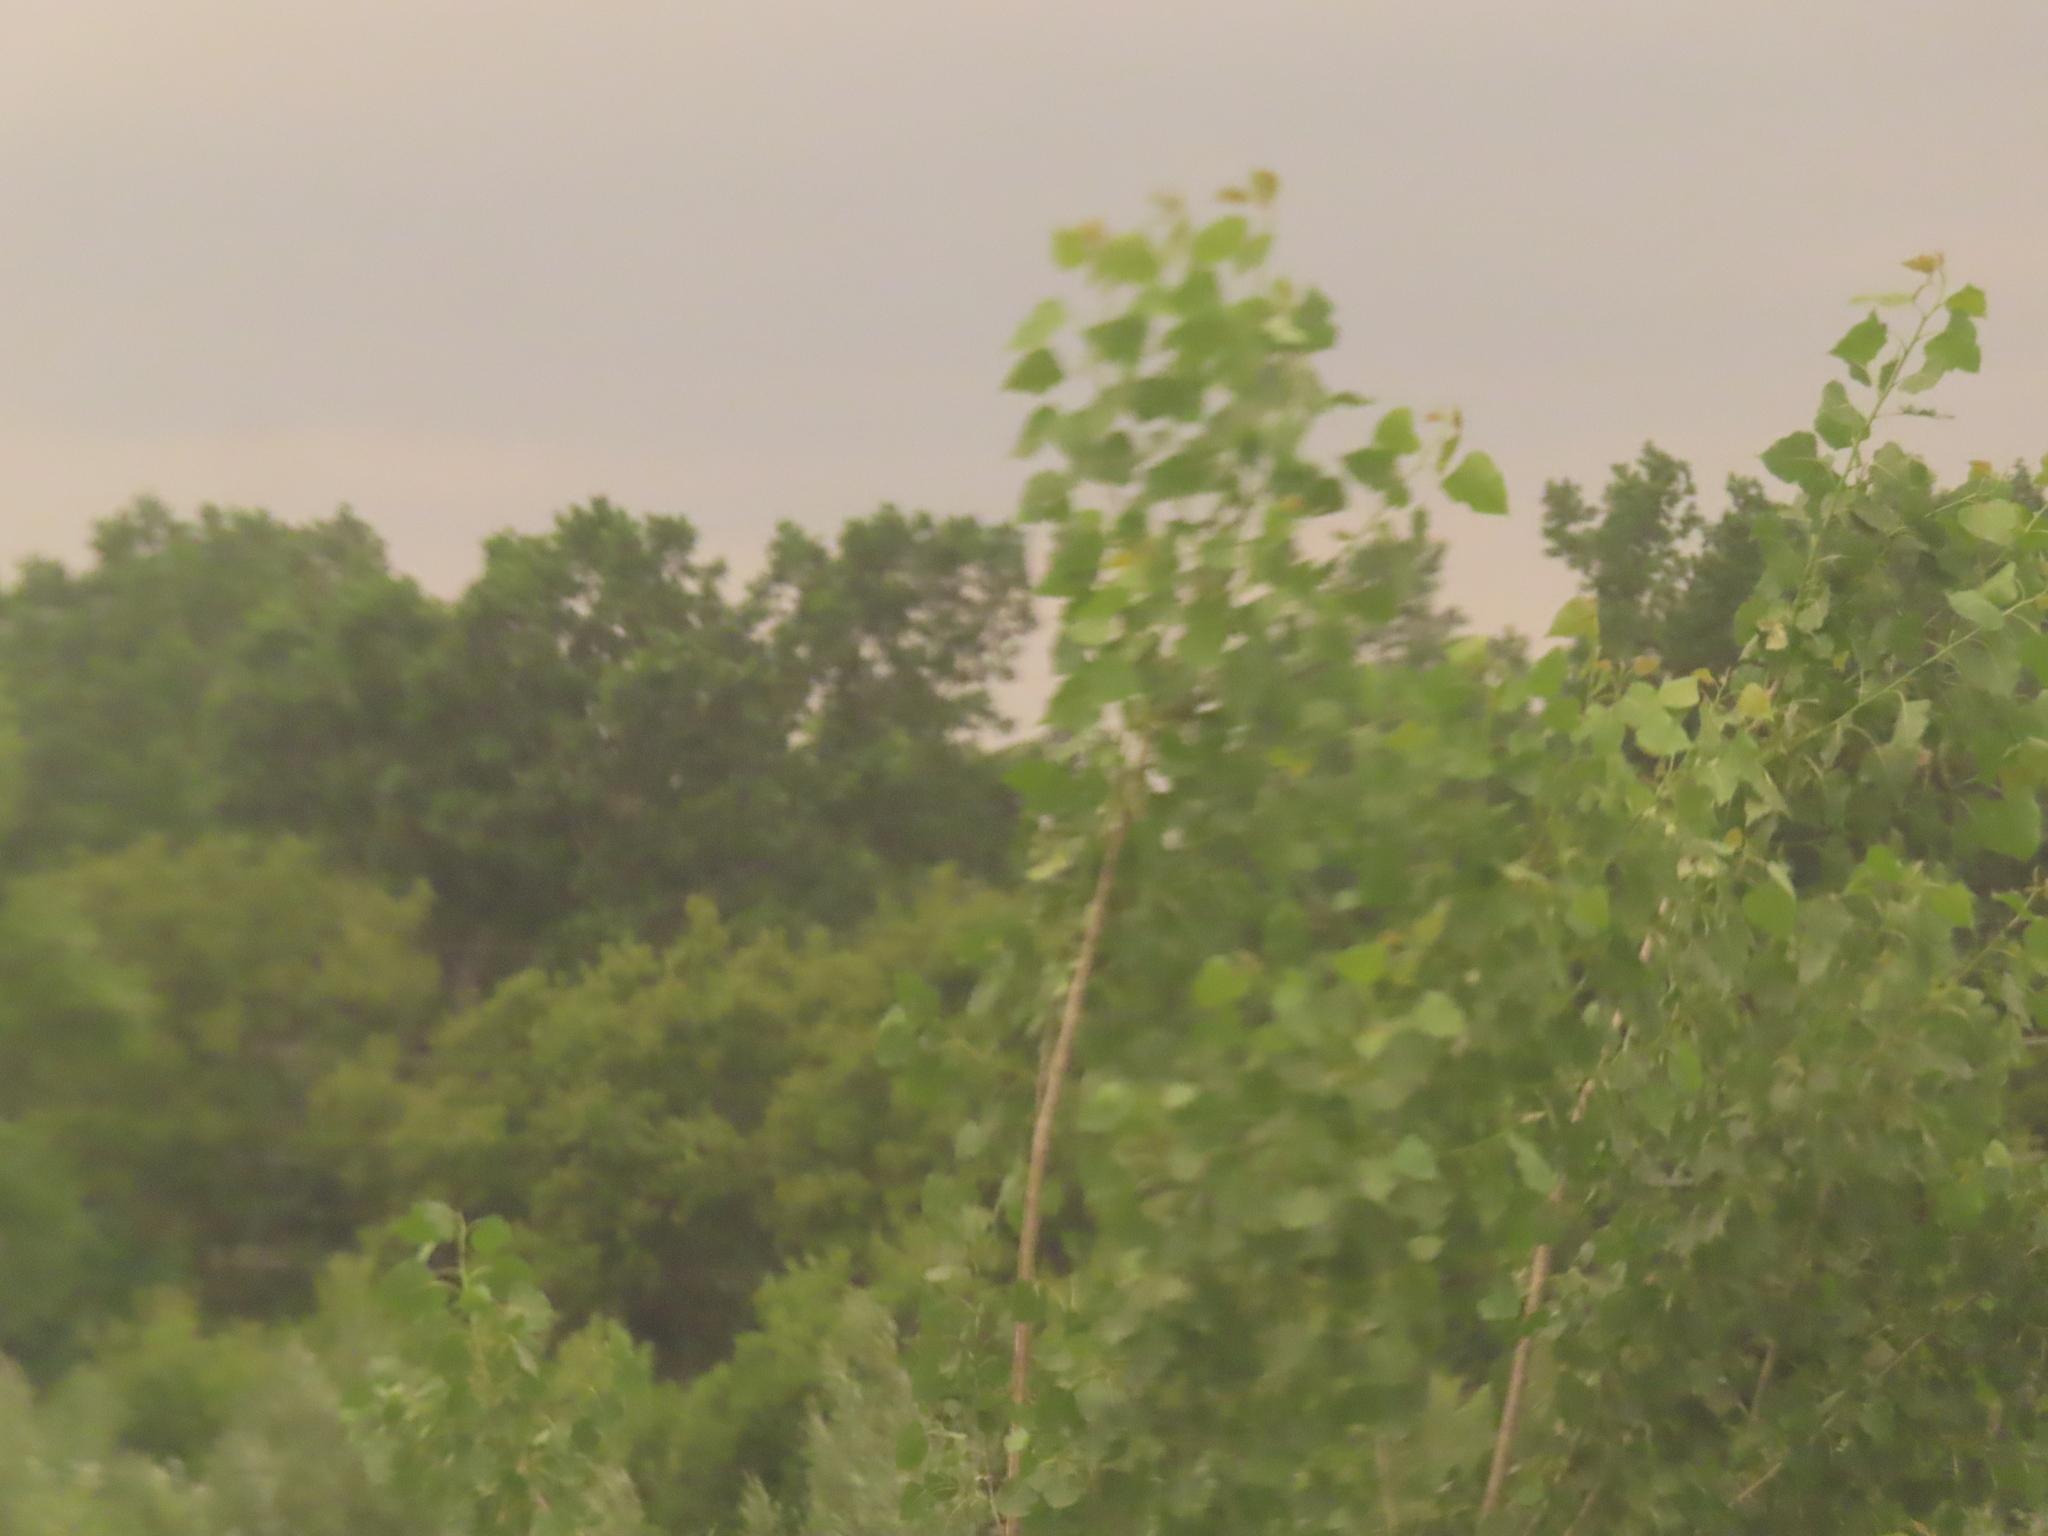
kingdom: Plantae
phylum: Tracheophyta
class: Magnoliopsida
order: Malpighiales
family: Salicaceae
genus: Populus
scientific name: Populus deltoides
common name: Eastern cottonwood
